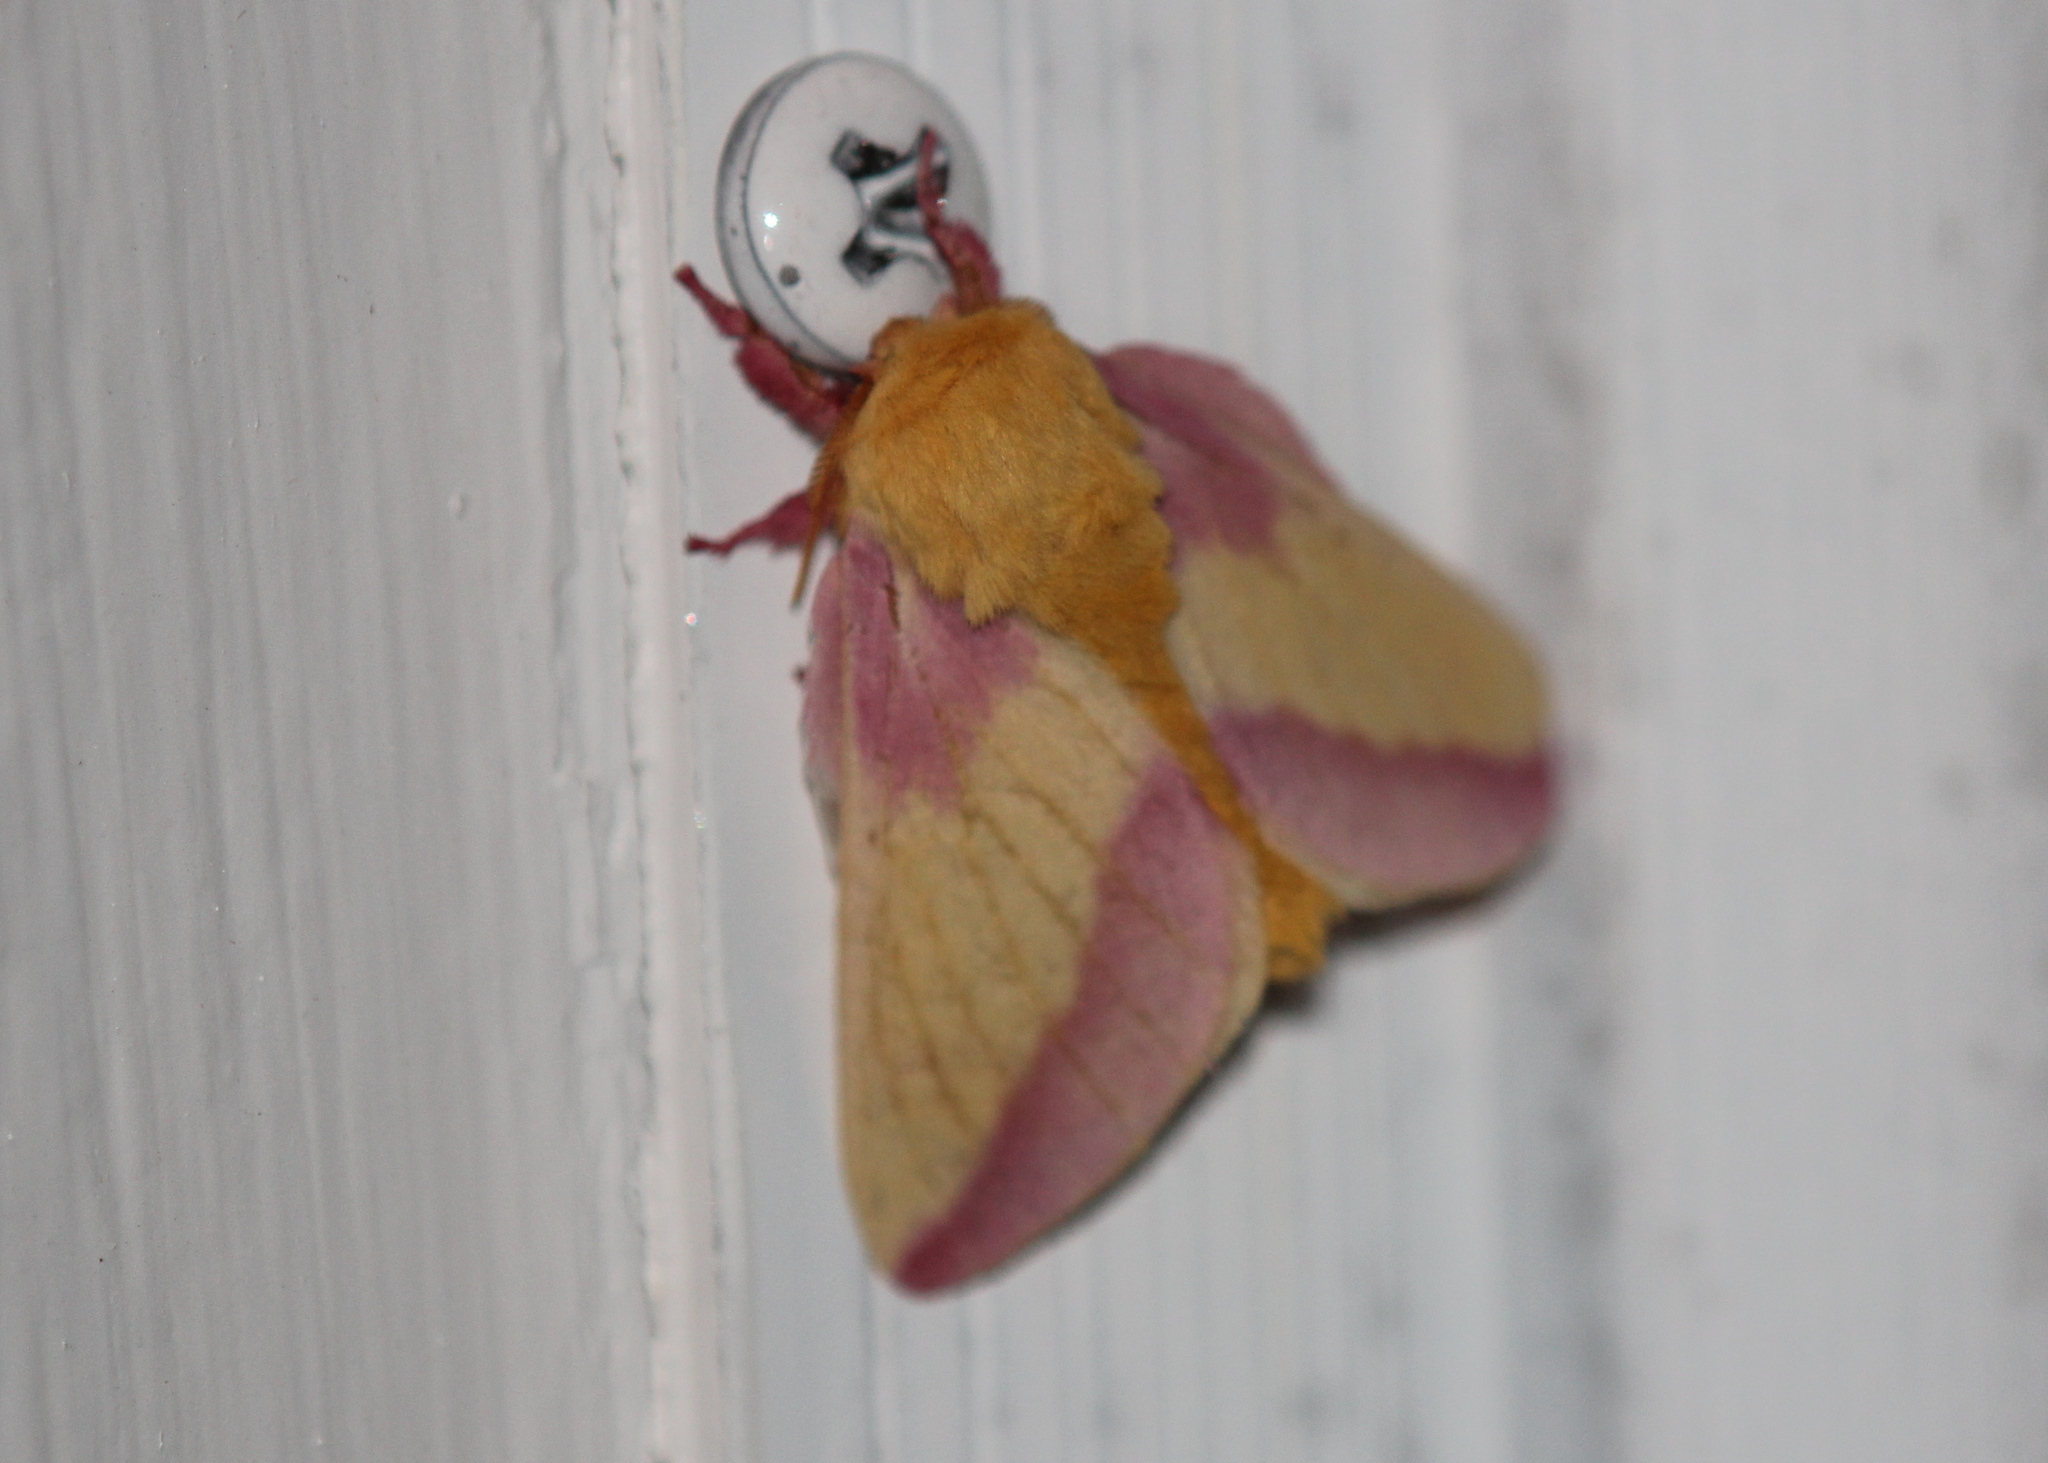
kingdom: Animalia
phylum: Arthropoda
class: Insecta
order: Lepidoptera
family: Saturniidae
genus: Dryocampa
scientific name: Dryocampa rubicunda
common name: Rosy maple moth
